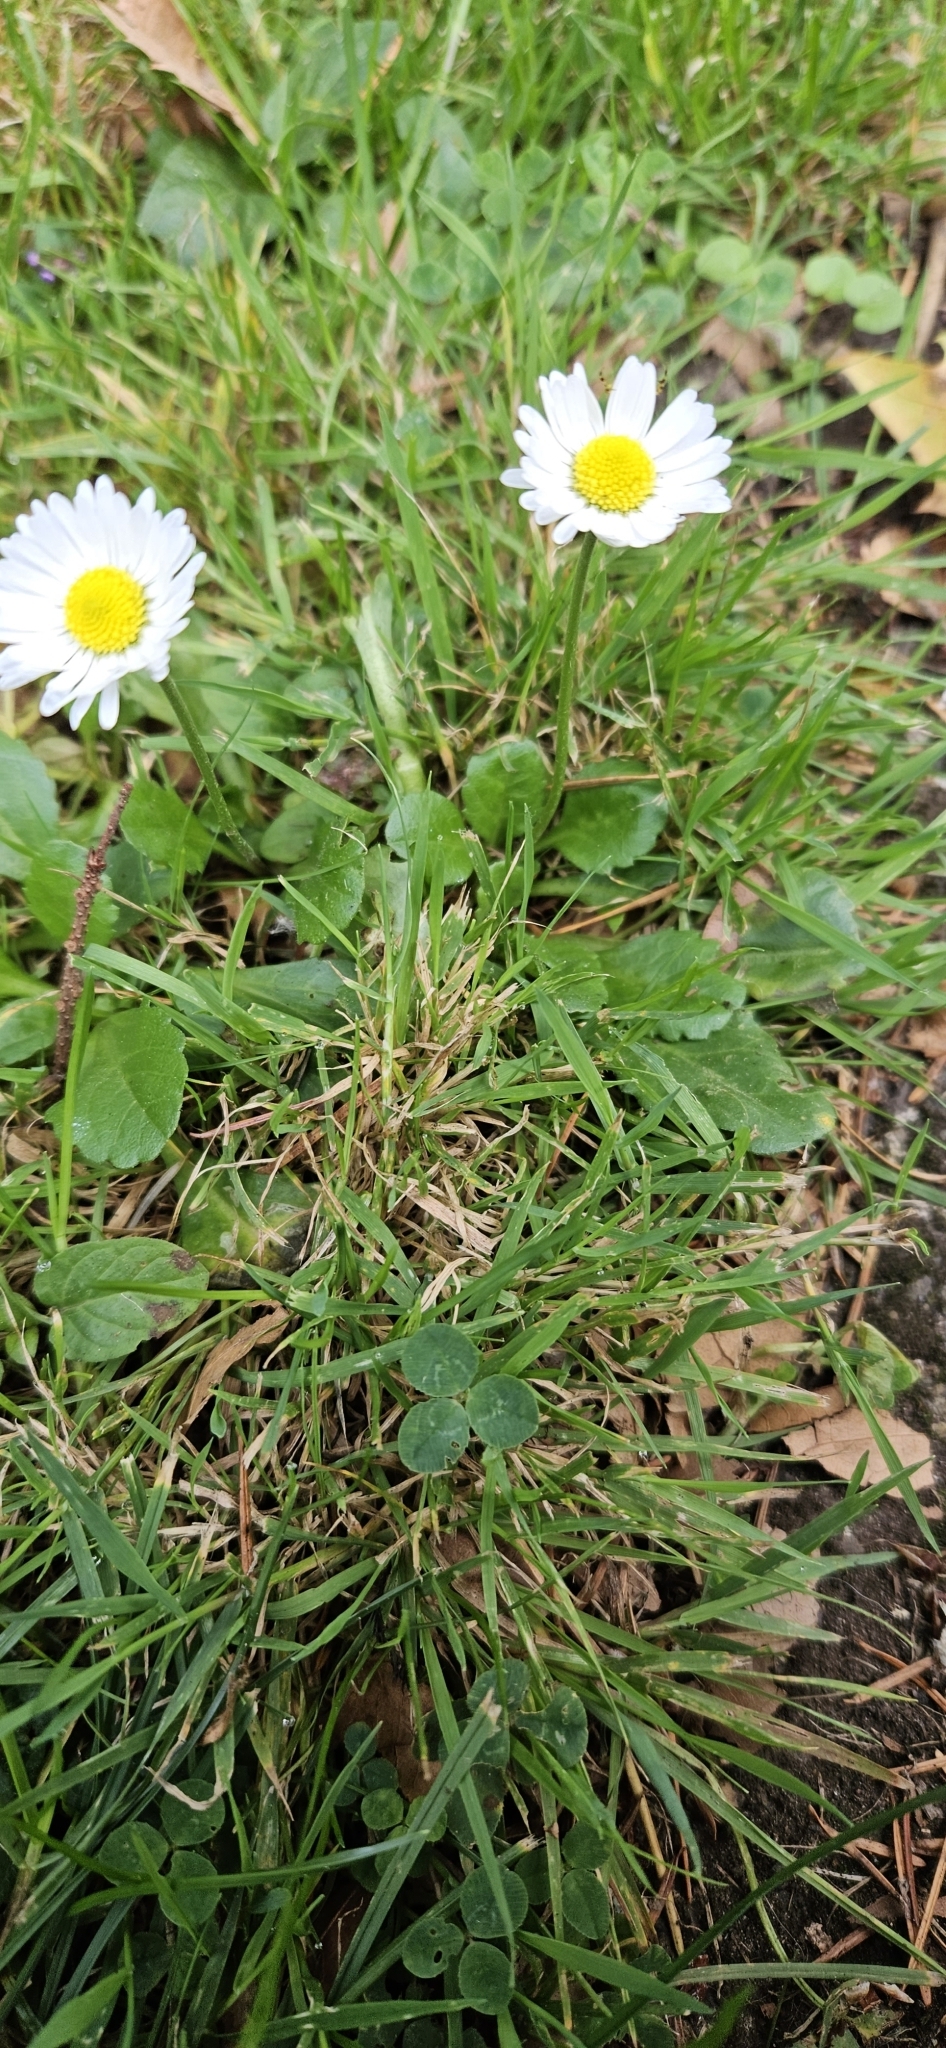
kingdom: Plantae
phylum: Tracheophyta
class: Magnoliopsida
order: Asterales
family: Asteraceae
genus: Bellis
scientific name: Bellis perennis
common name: Lawndaisy
